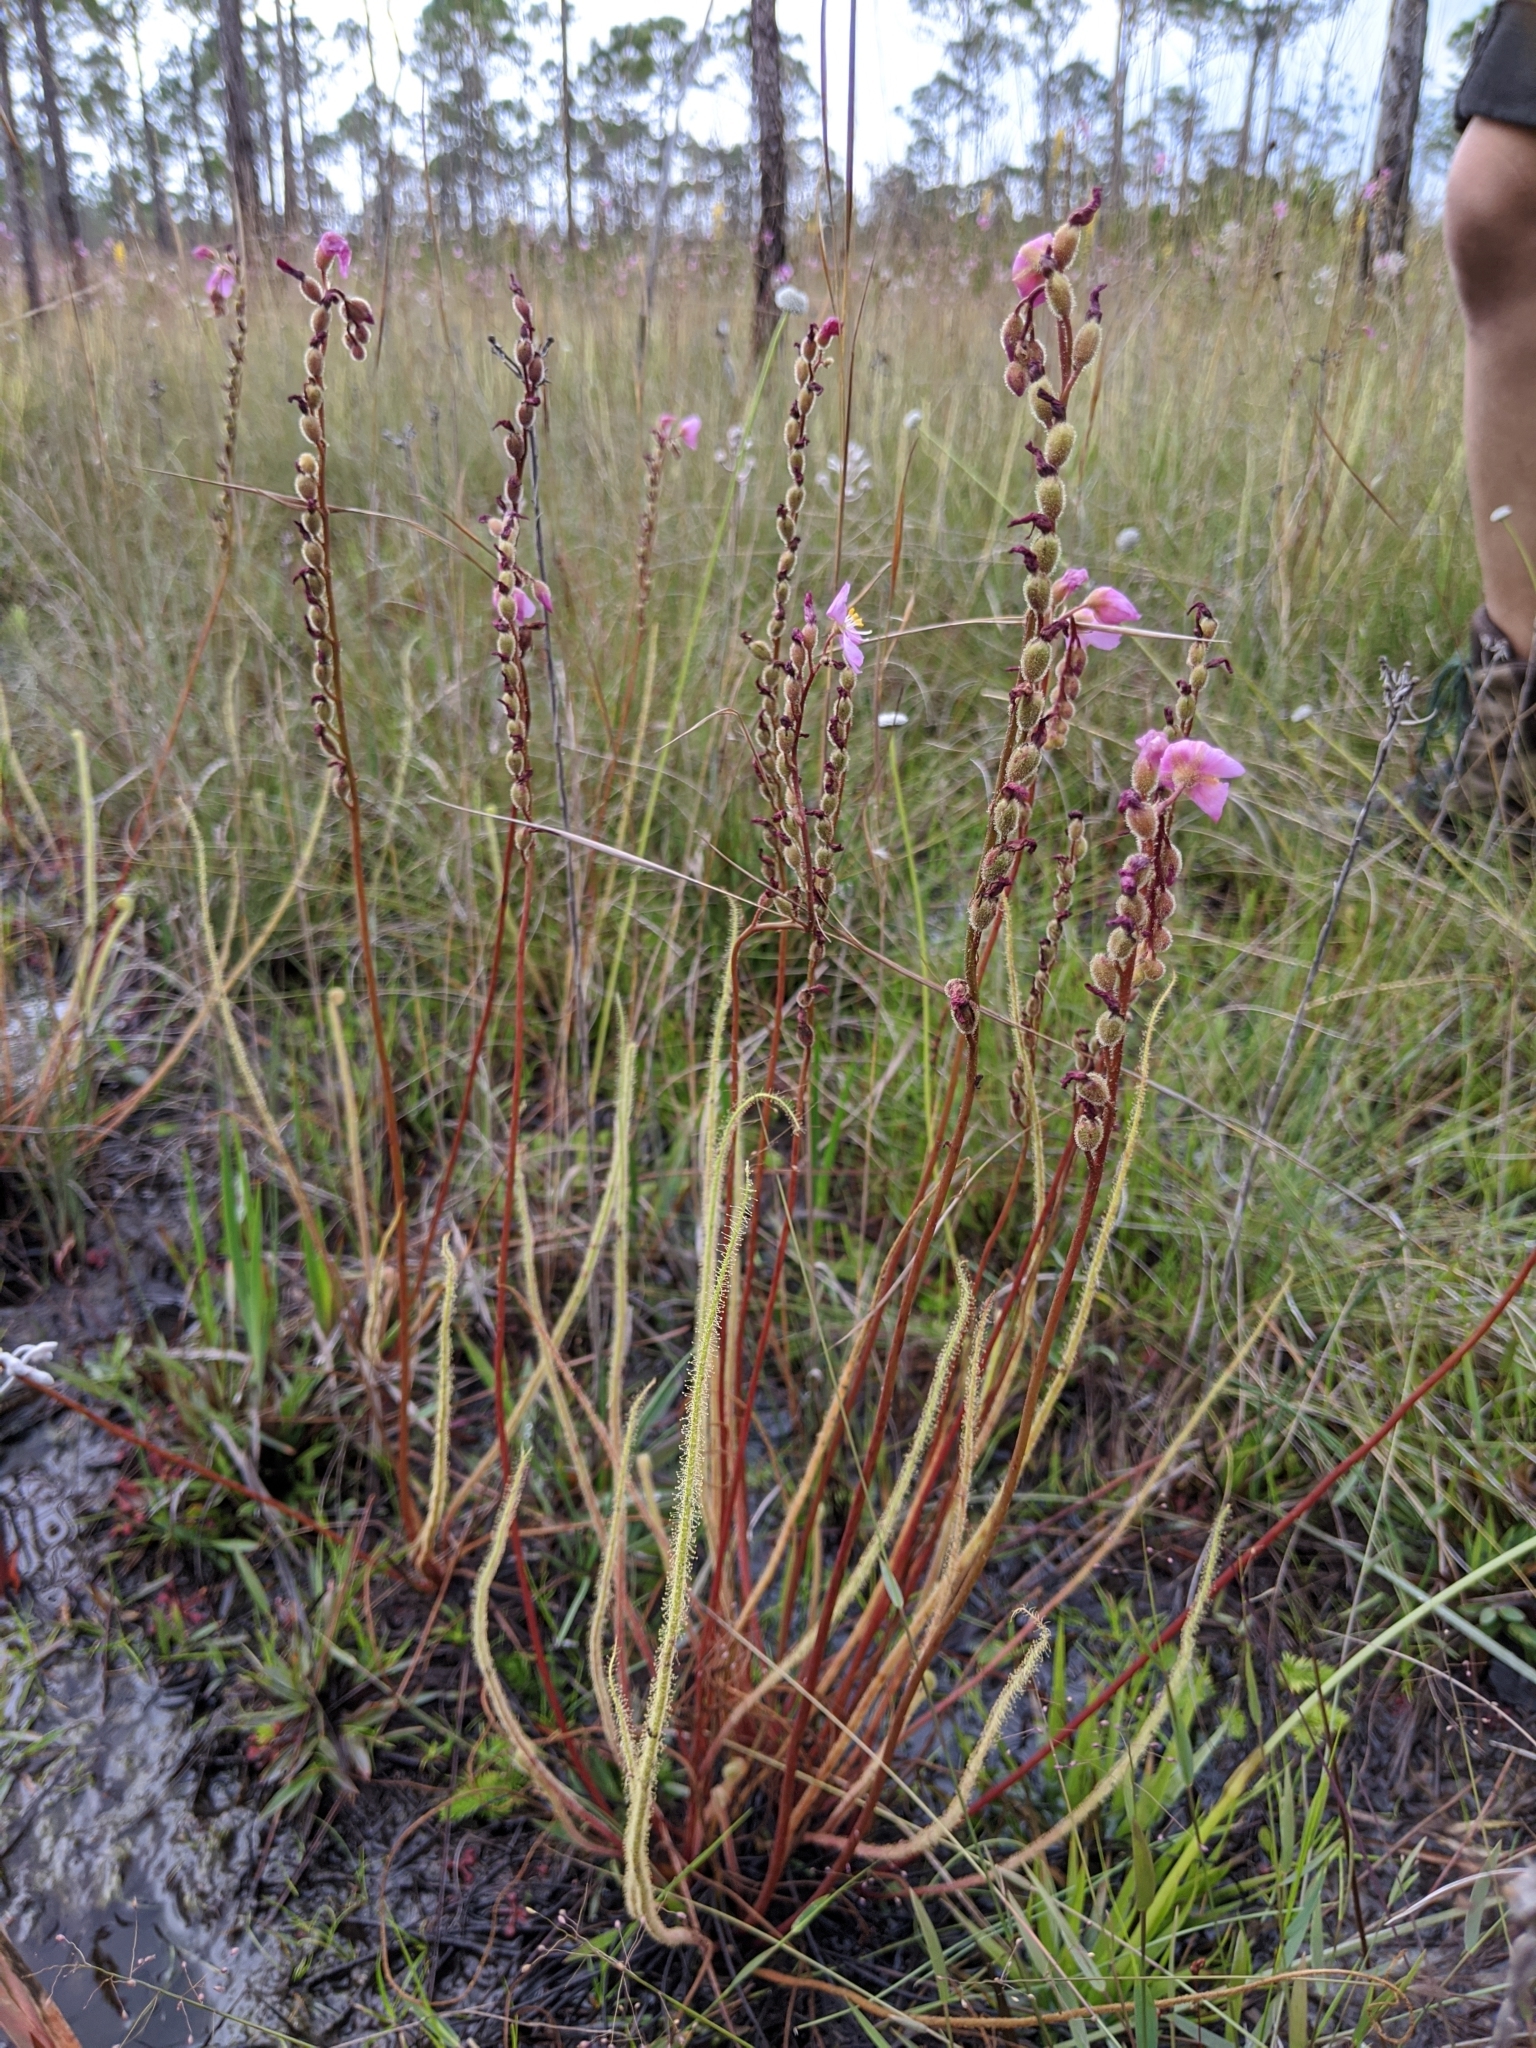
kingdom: Plantae
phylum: Tracheophyta
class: Magnoliopsida
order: Caryophyllales
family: Droseraceae
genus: Drosera
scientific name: Drosera filiformis
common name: Dew-thread
